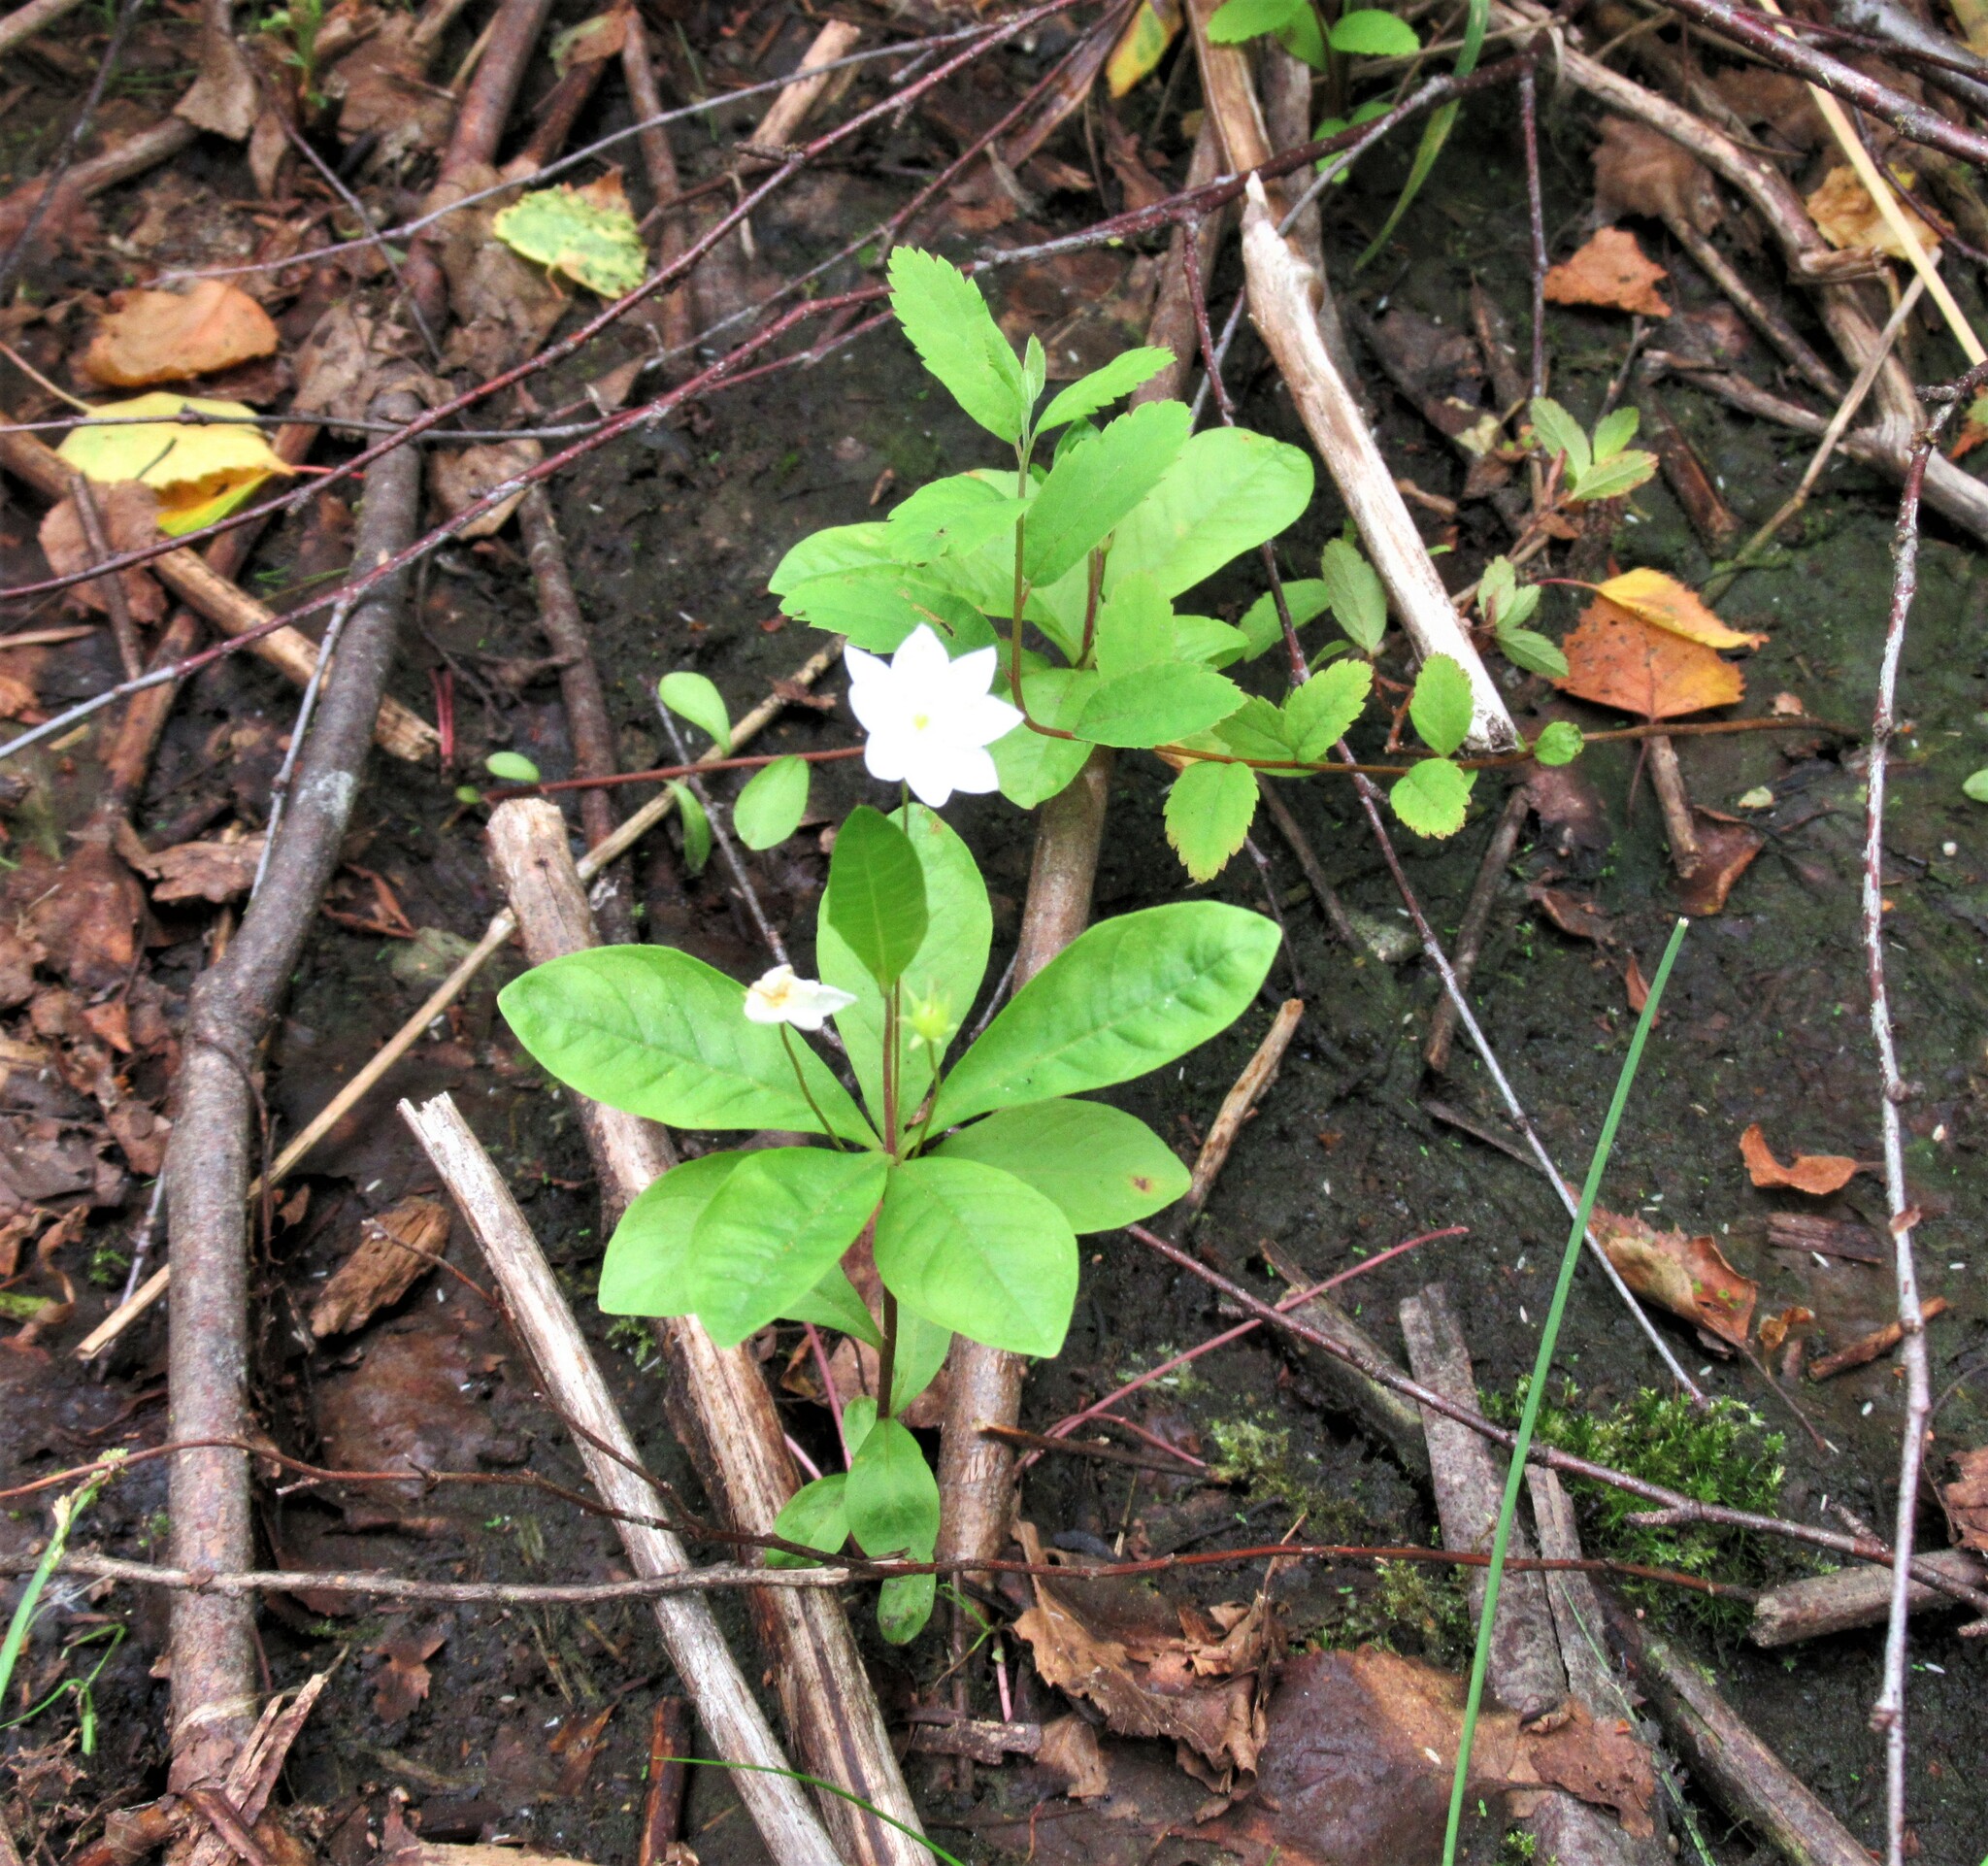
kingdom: Plantae
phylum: Tracheophyta
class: Magnoliopsida
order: Ericales
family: Primulaceae
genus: Lysimachia
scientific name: Lysimachia latifolia
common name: Pacific starflower
